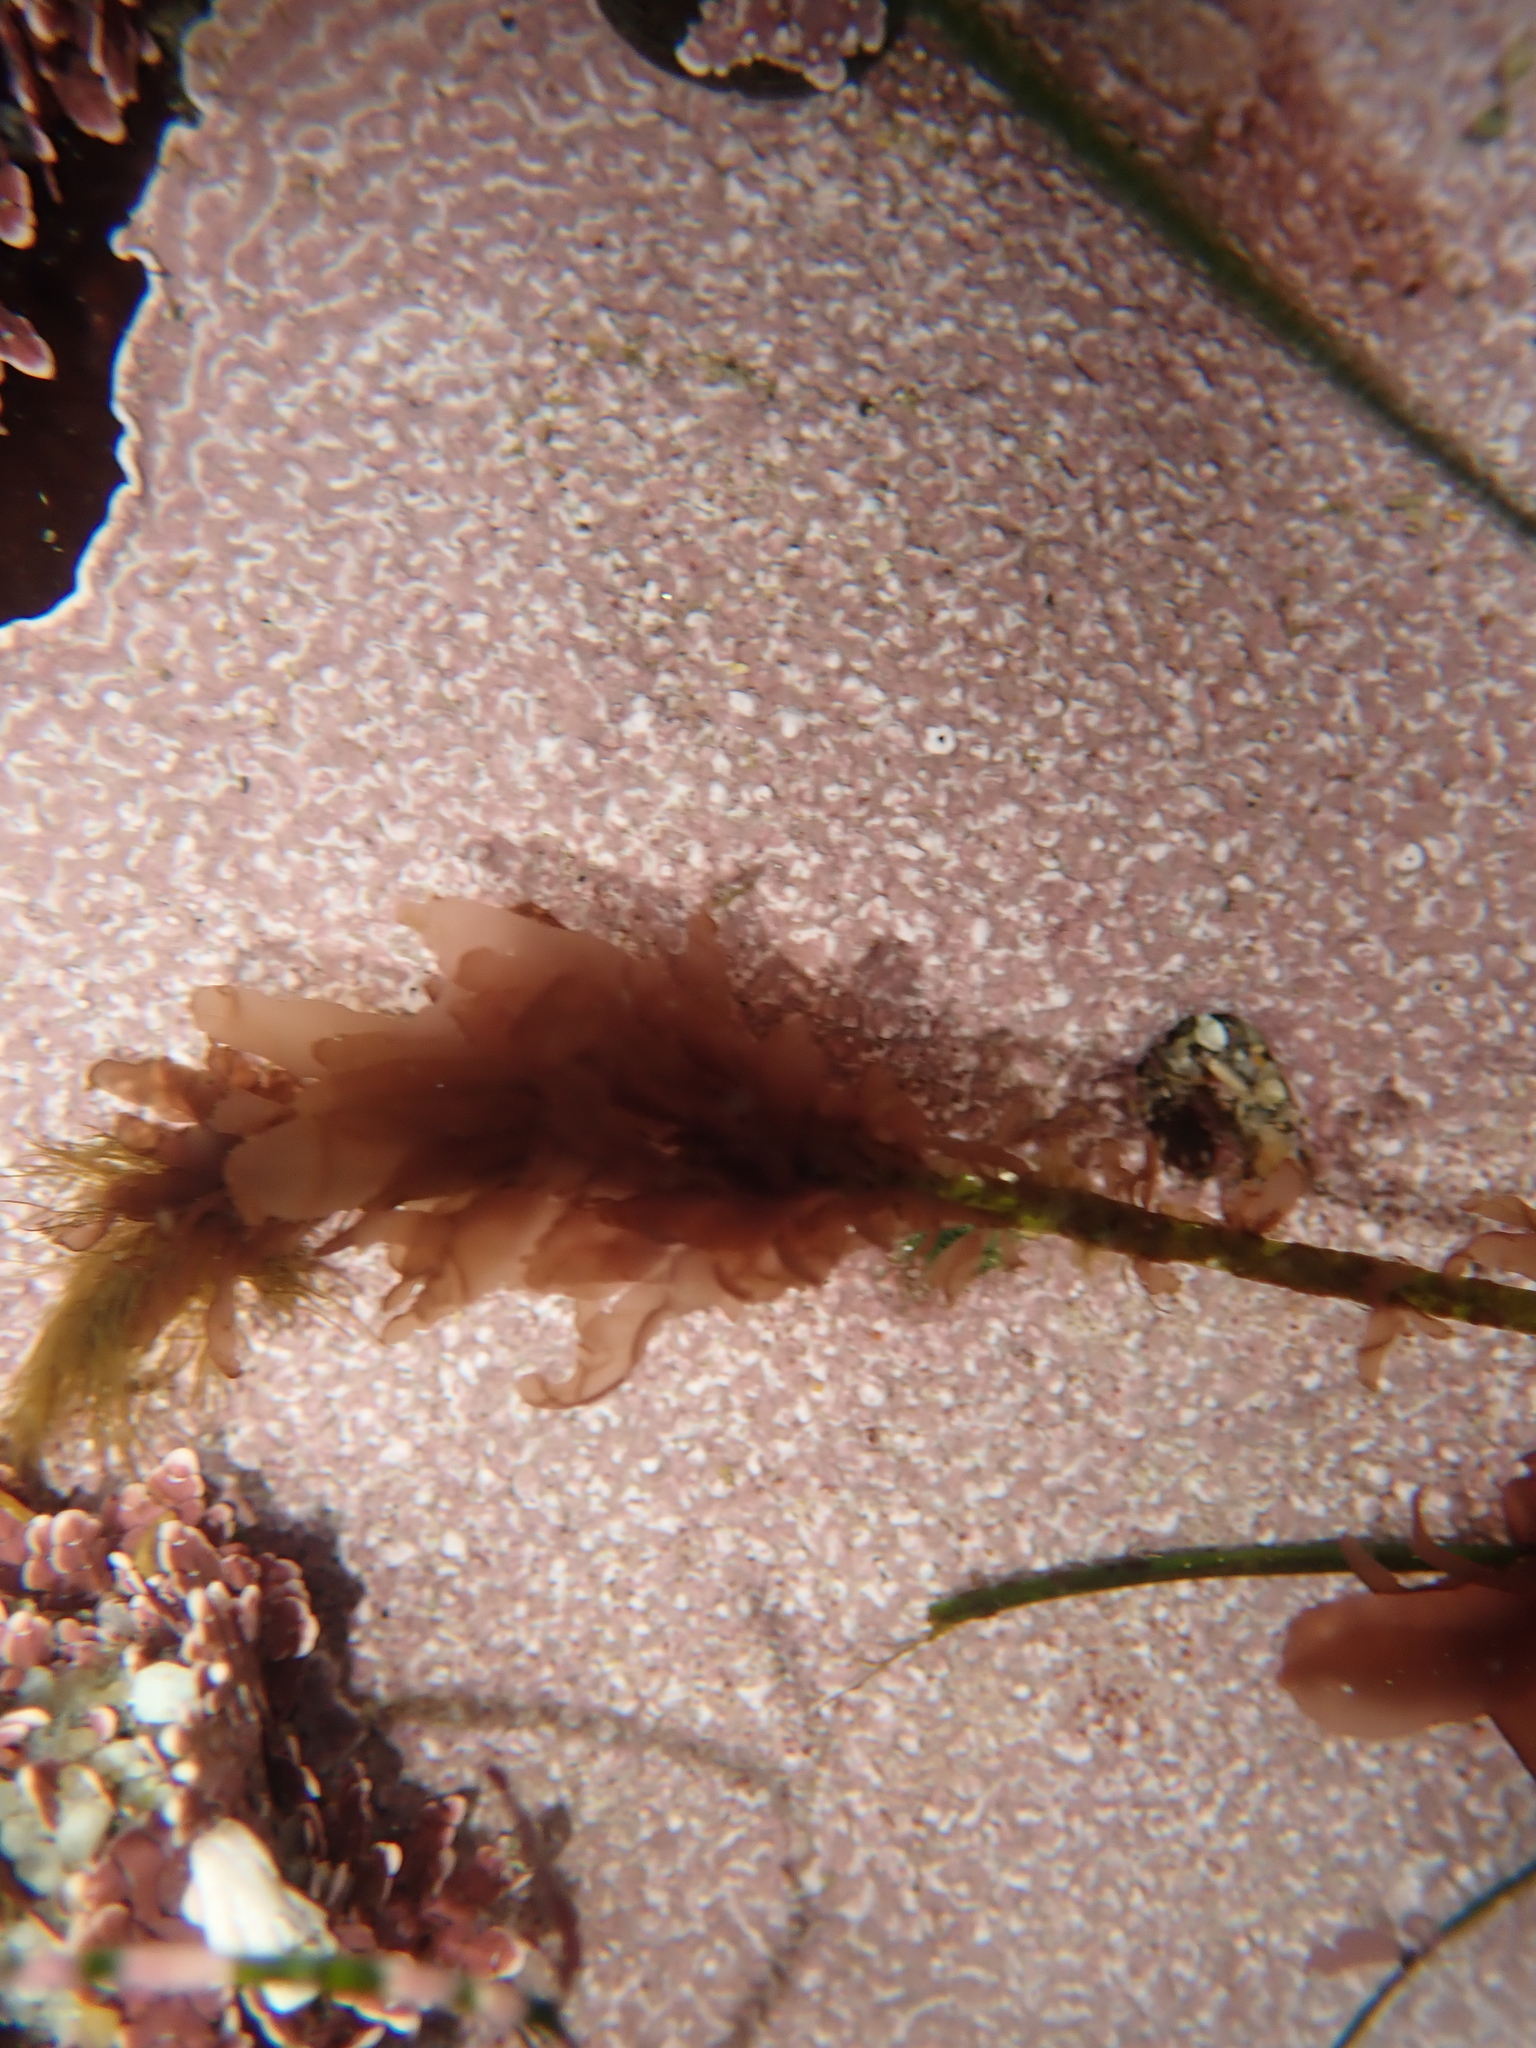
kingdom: Plantae
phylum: Rhodophyta
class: Compsopogonophyceae
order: Erythropeltidales
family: Erythrotrichiaceae
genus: Smithora
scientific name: Smithora naiadum
